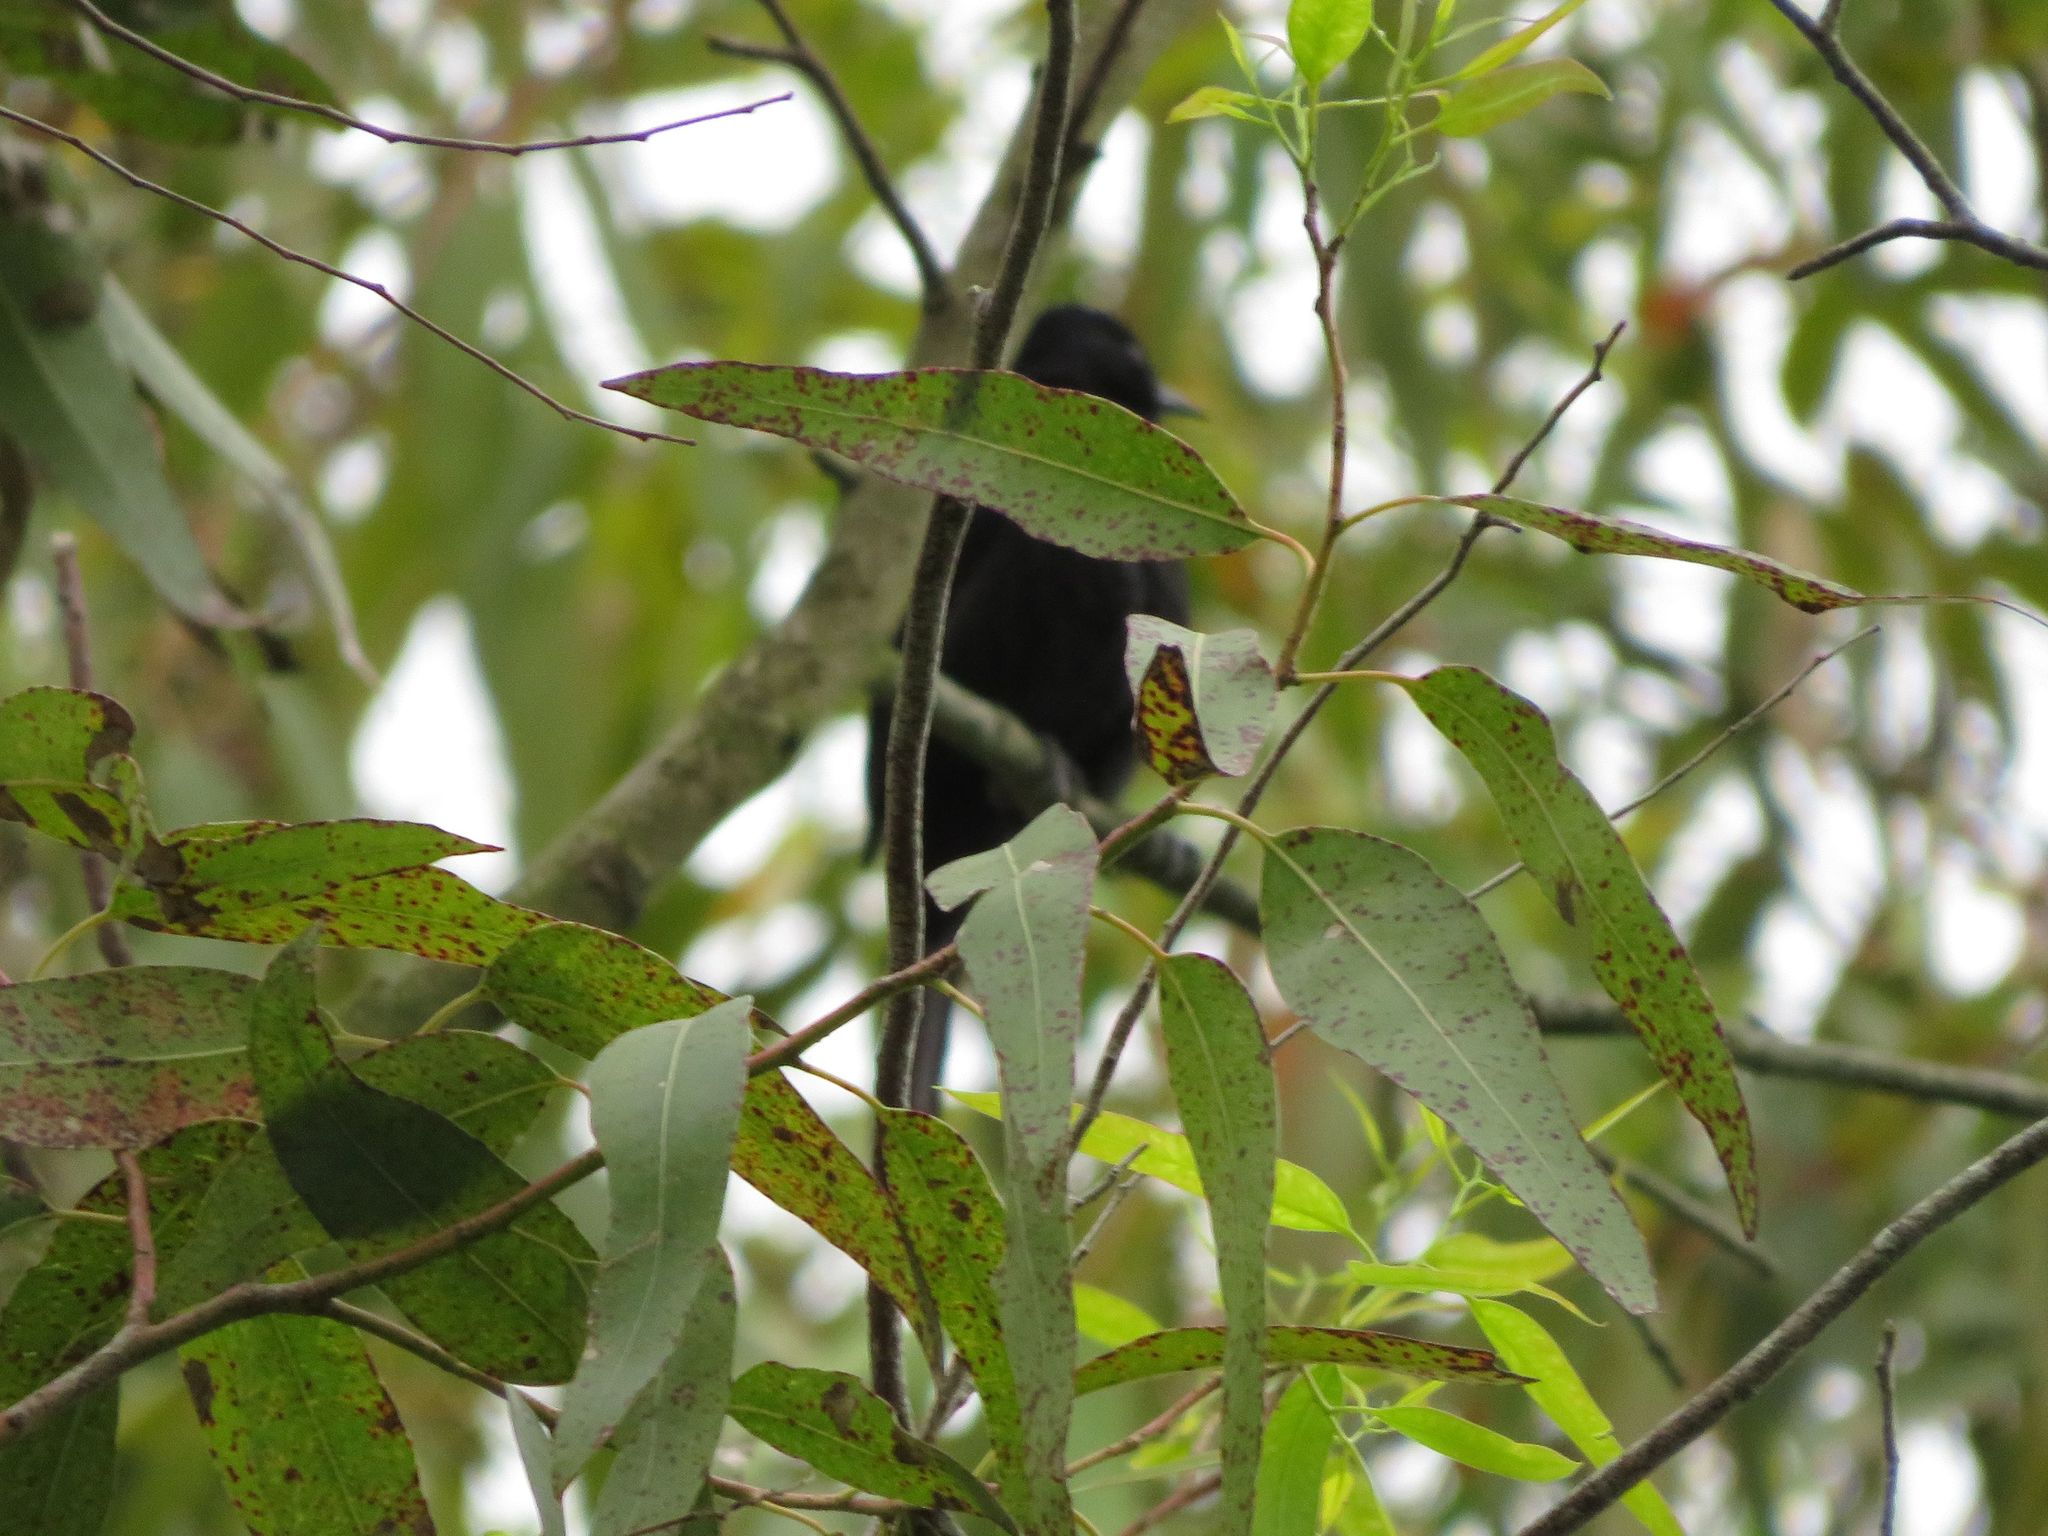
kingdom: Animalia
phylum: Chordata
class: Aves
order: Passeriformes
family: Icteridae
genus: Icterus
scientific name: Icterus cayanensis
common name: Epaulet oriole
